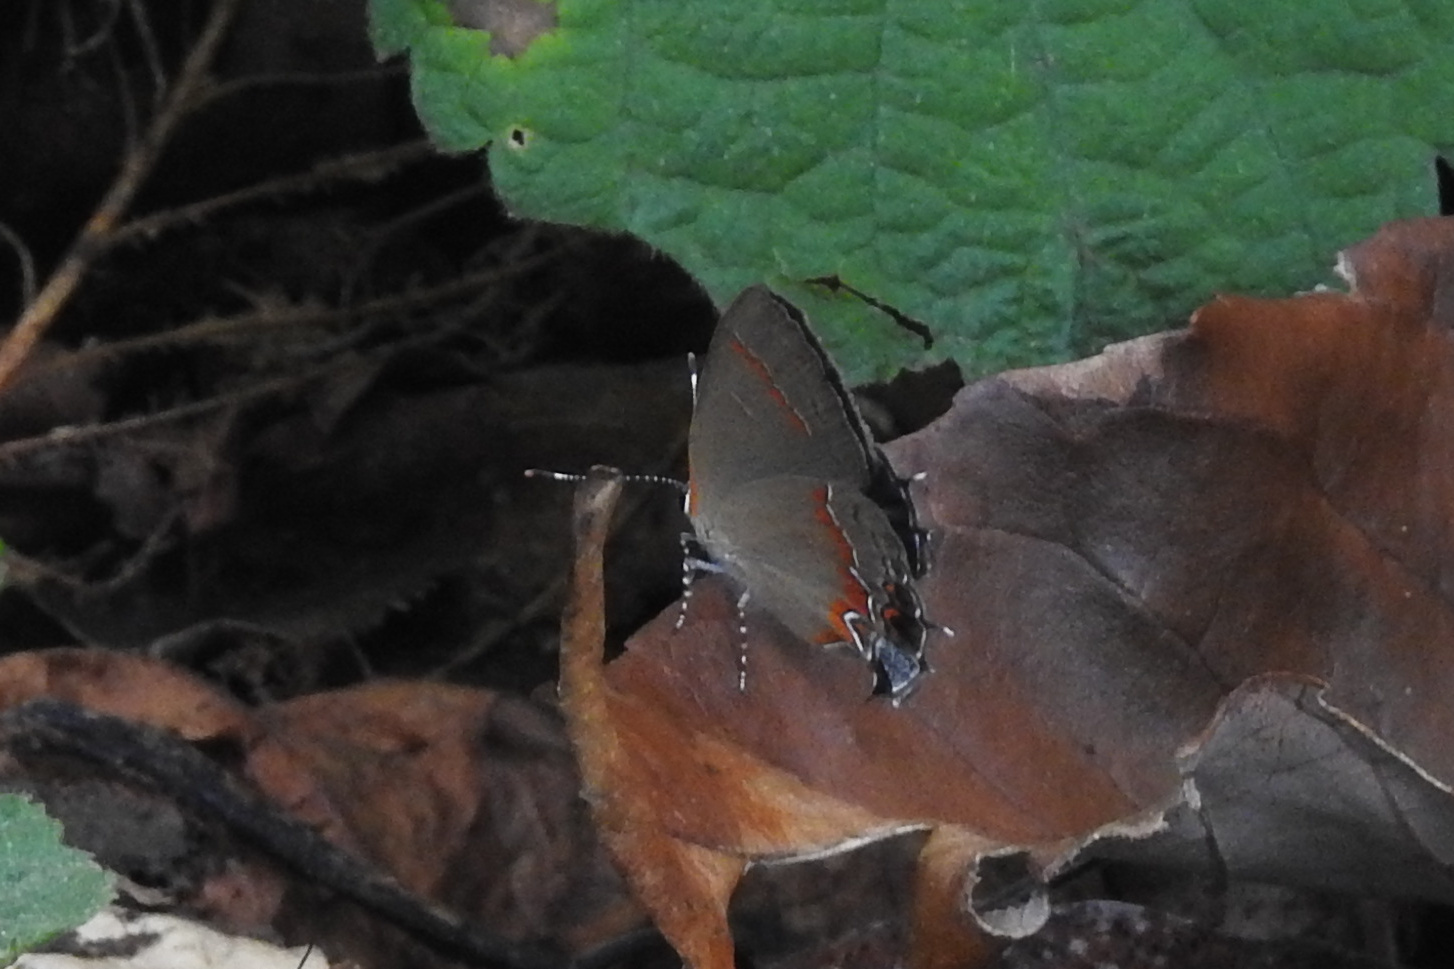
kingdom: Animalia
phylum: Arthropoda
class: Insecta
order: Lepidoptera
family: Lycaenidae
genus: Calycopis
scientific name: Calycopis cecrops
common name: Red-banded hairstreak
